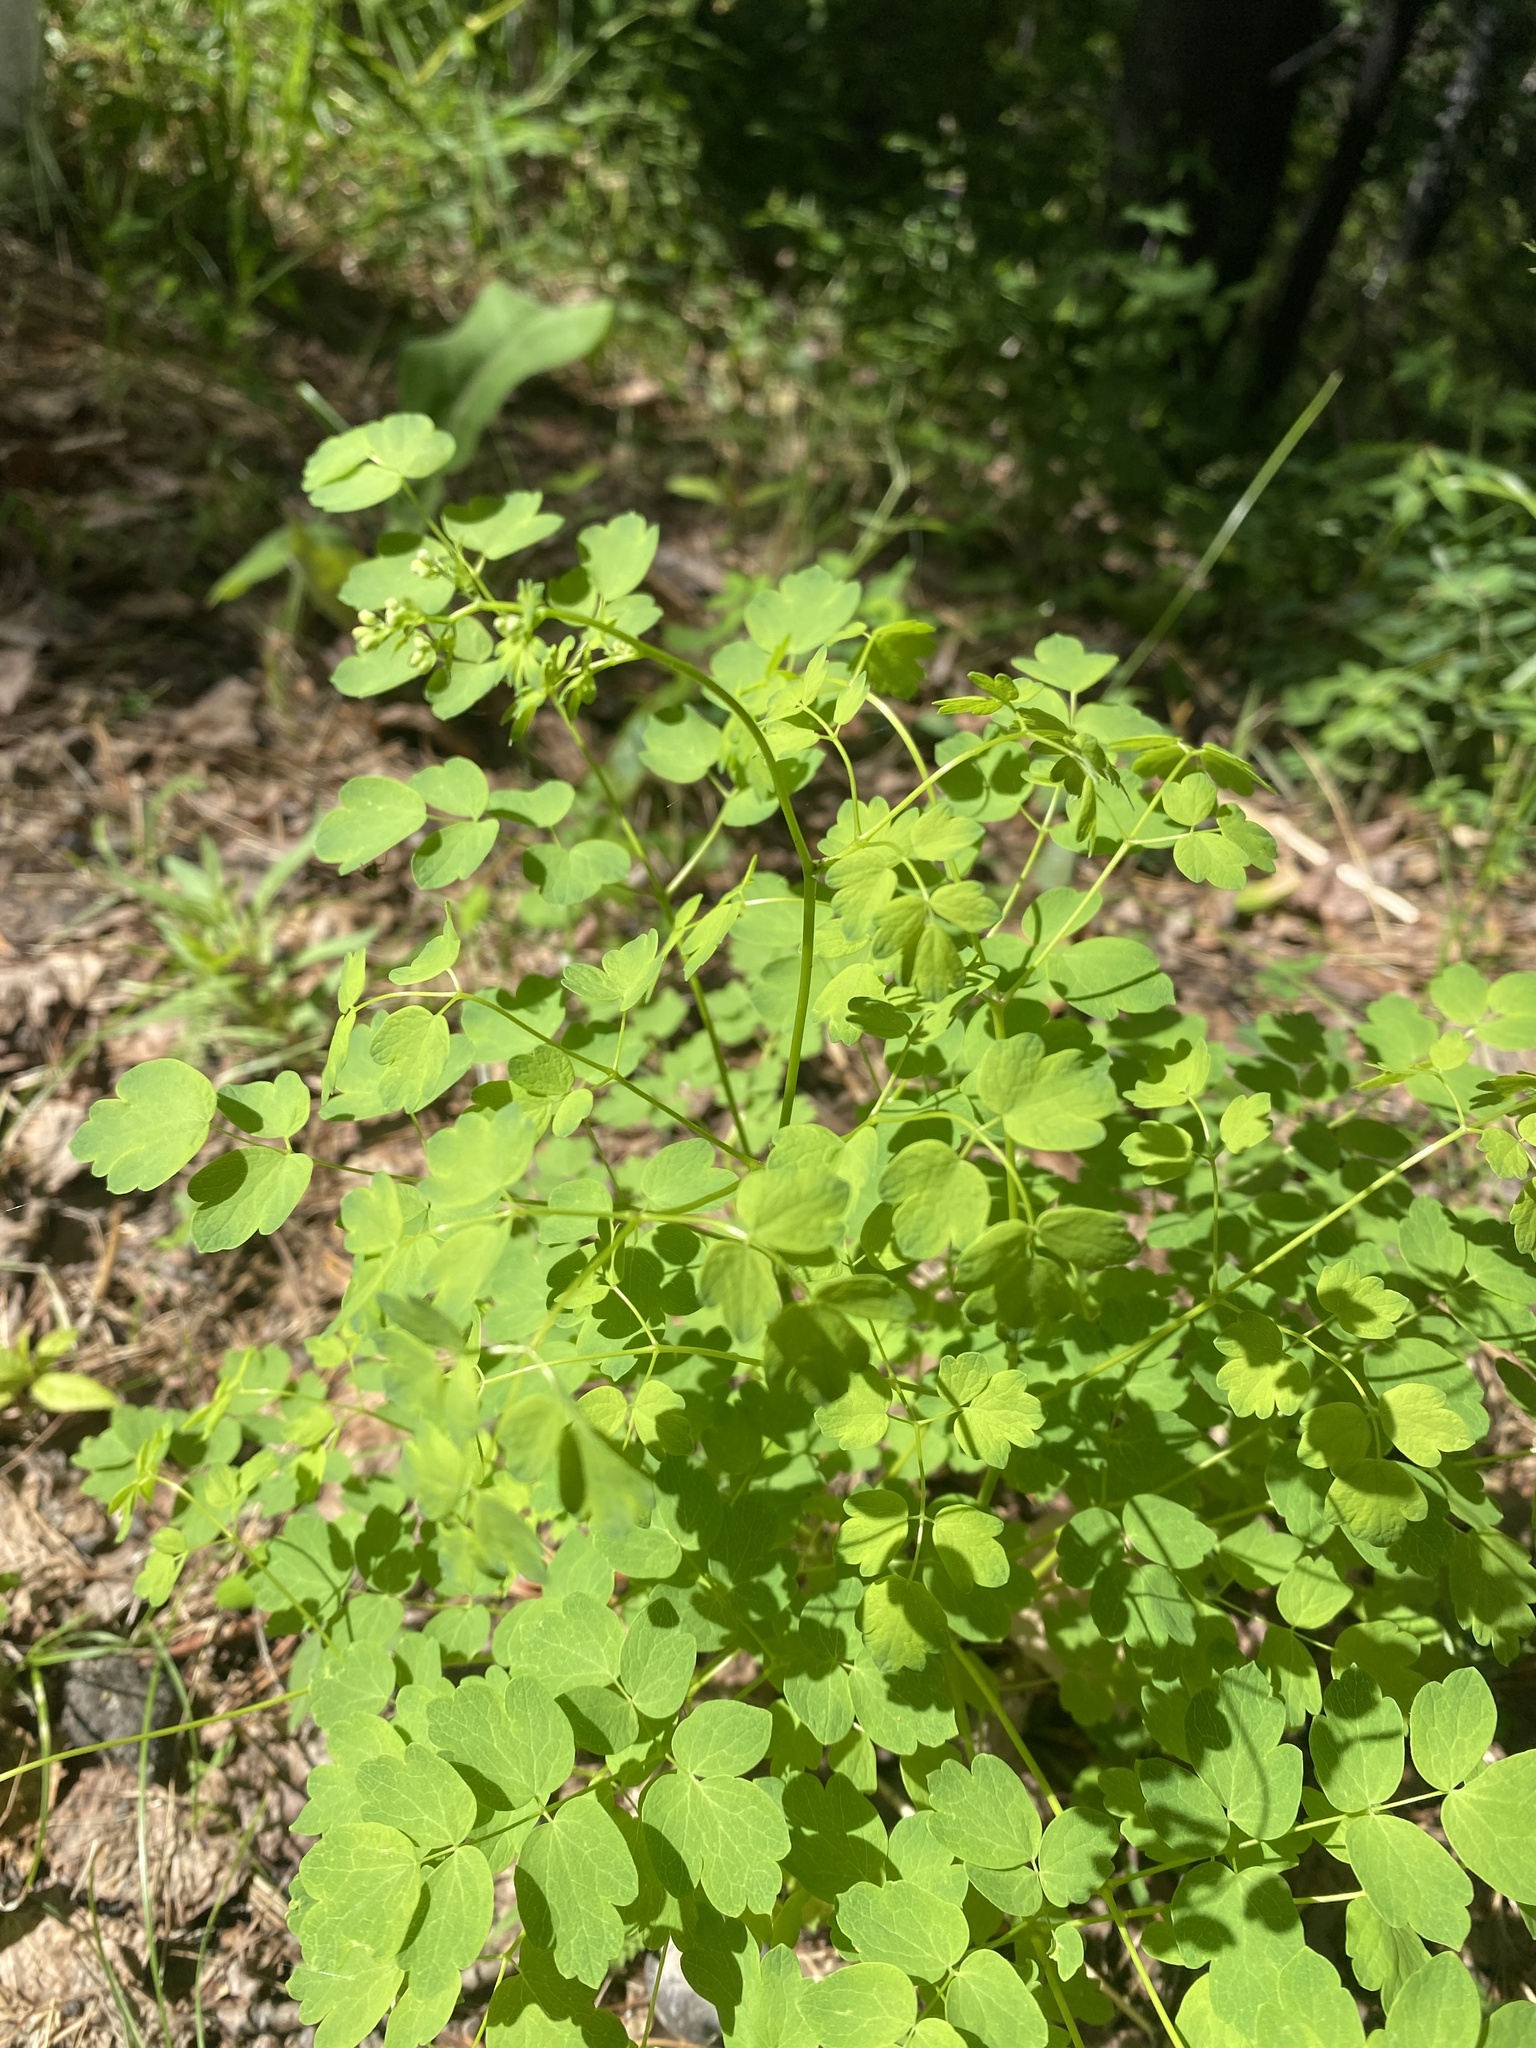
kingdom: Plantae
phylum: Tracheophyta
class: Magnoliopsida
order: Ranunculales
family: Ranunculaceae
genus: Thalictrum
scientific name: Thalictrum minus
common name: Lesser meadow-rue
